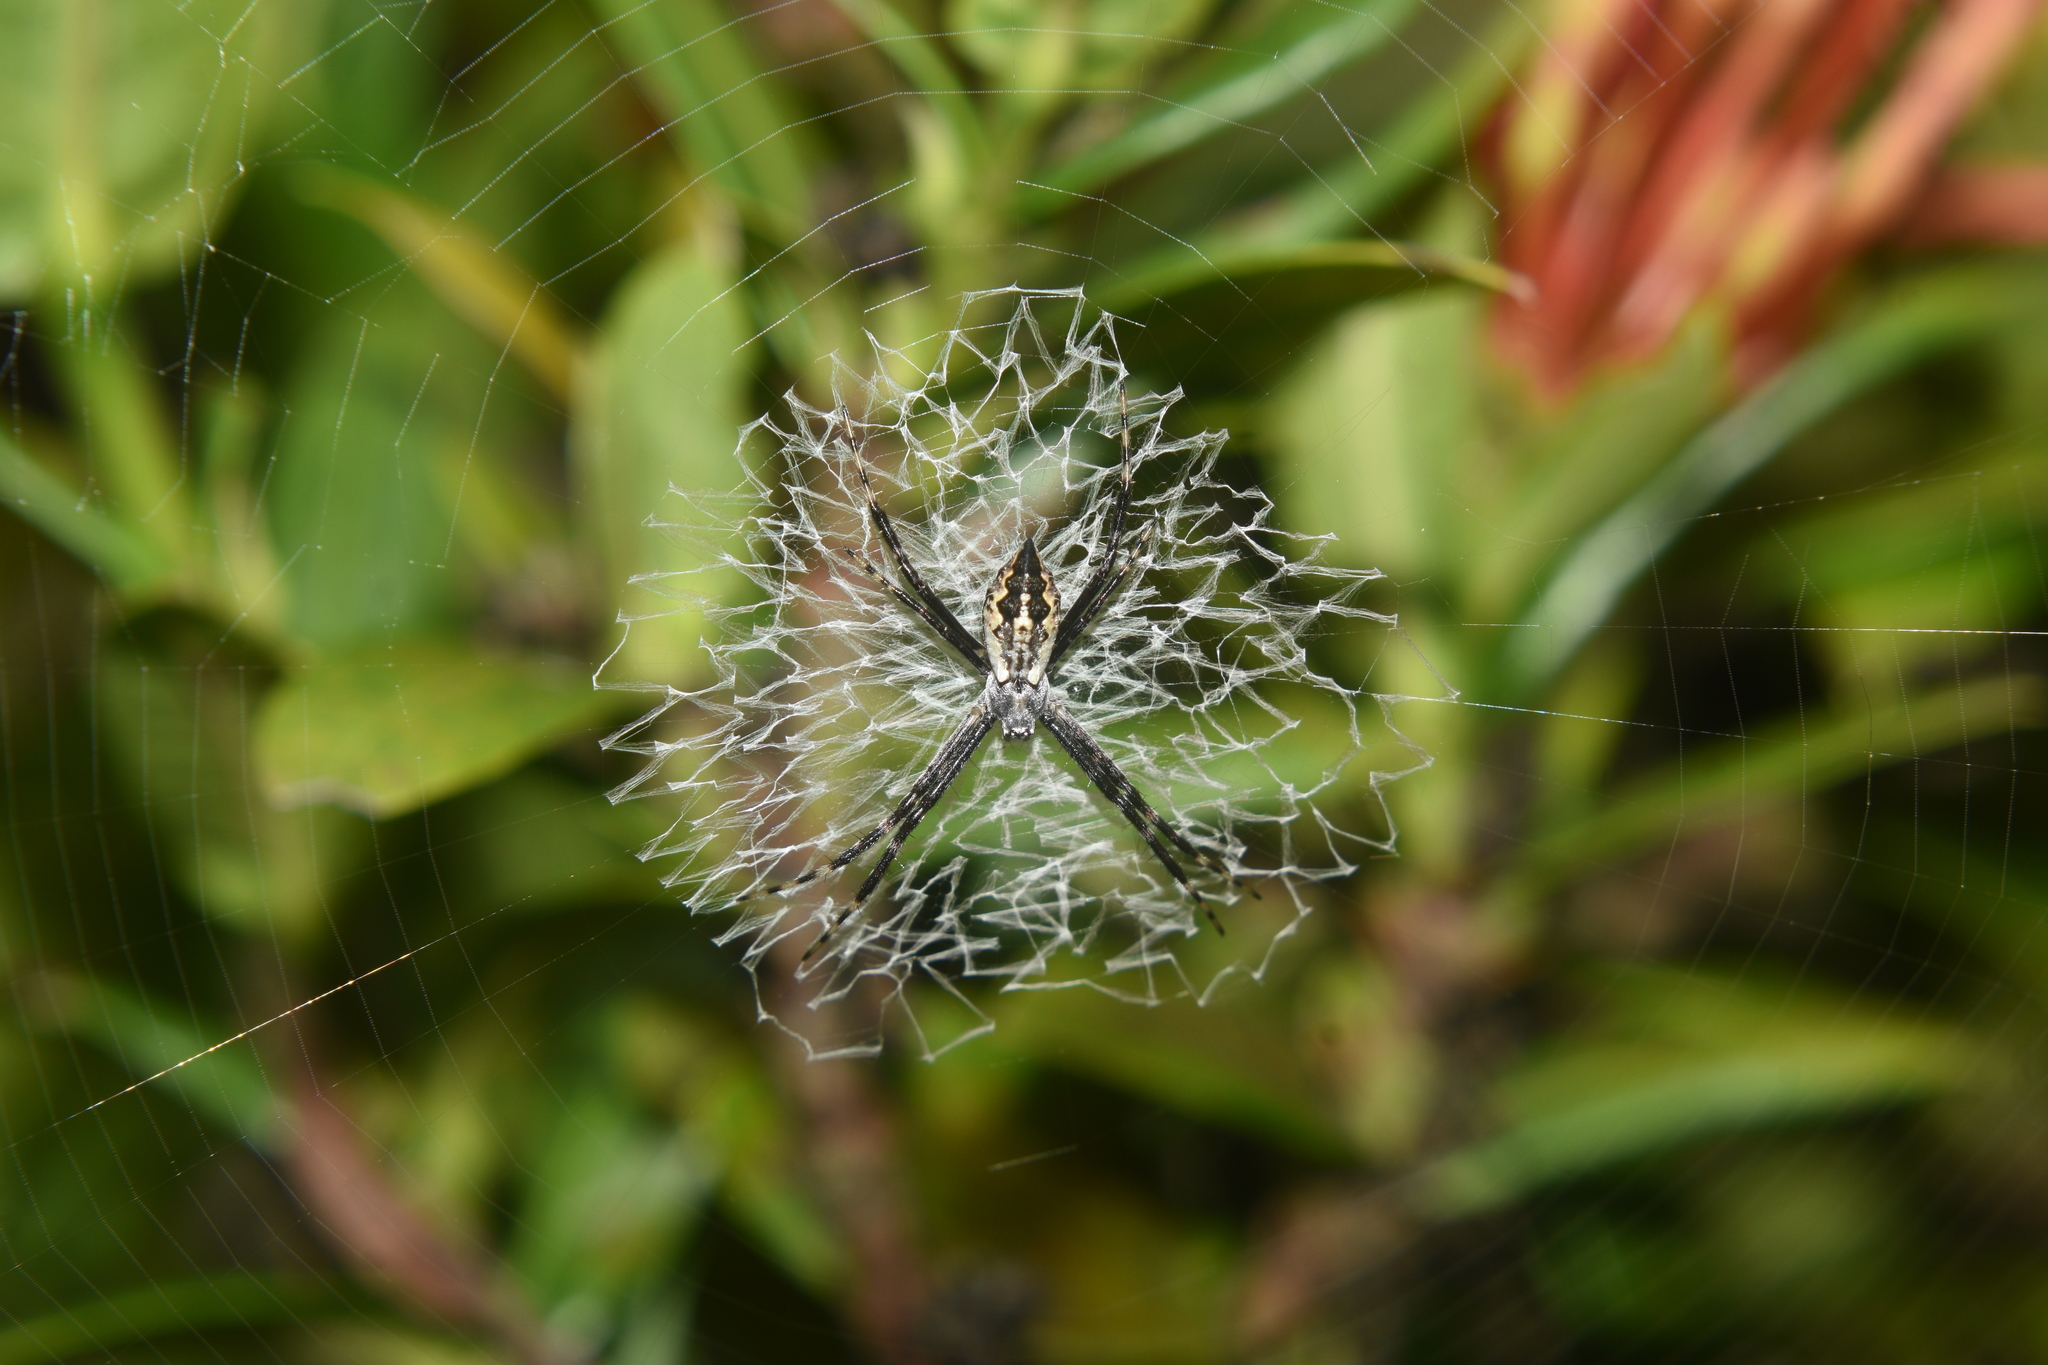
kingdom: Animalia
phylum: Arthropoda
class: Arachnida
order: Araneae
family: Araneidae
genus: Argiope
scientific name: Argiope argentata
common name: Orb weavers
